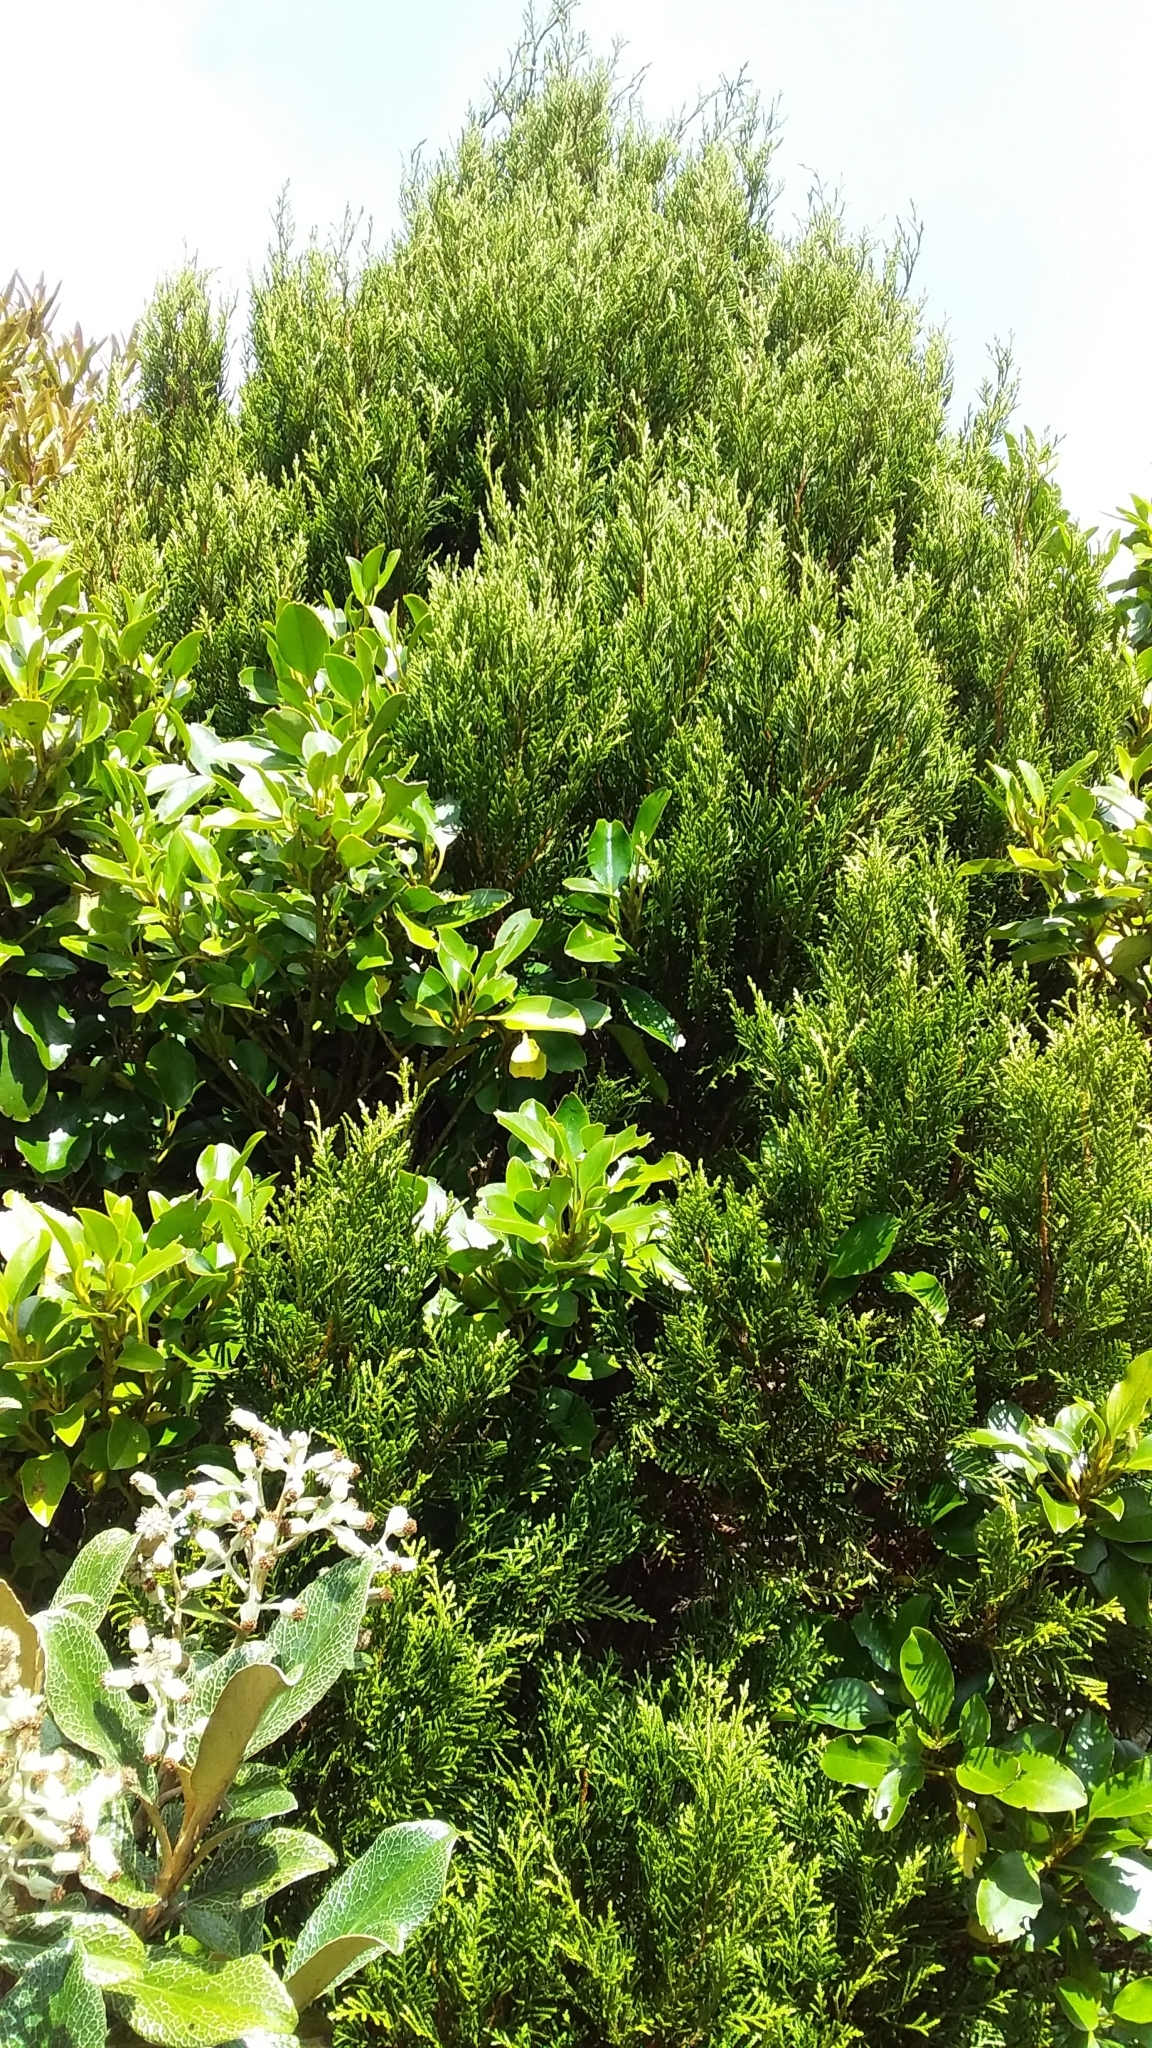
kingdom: Plantae
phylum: Tracheophyta
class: Pinopsida
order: Pinales
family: Cupressaceae
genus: Libocedrus
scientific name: Libocedrus bidwillii
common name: Cedar
